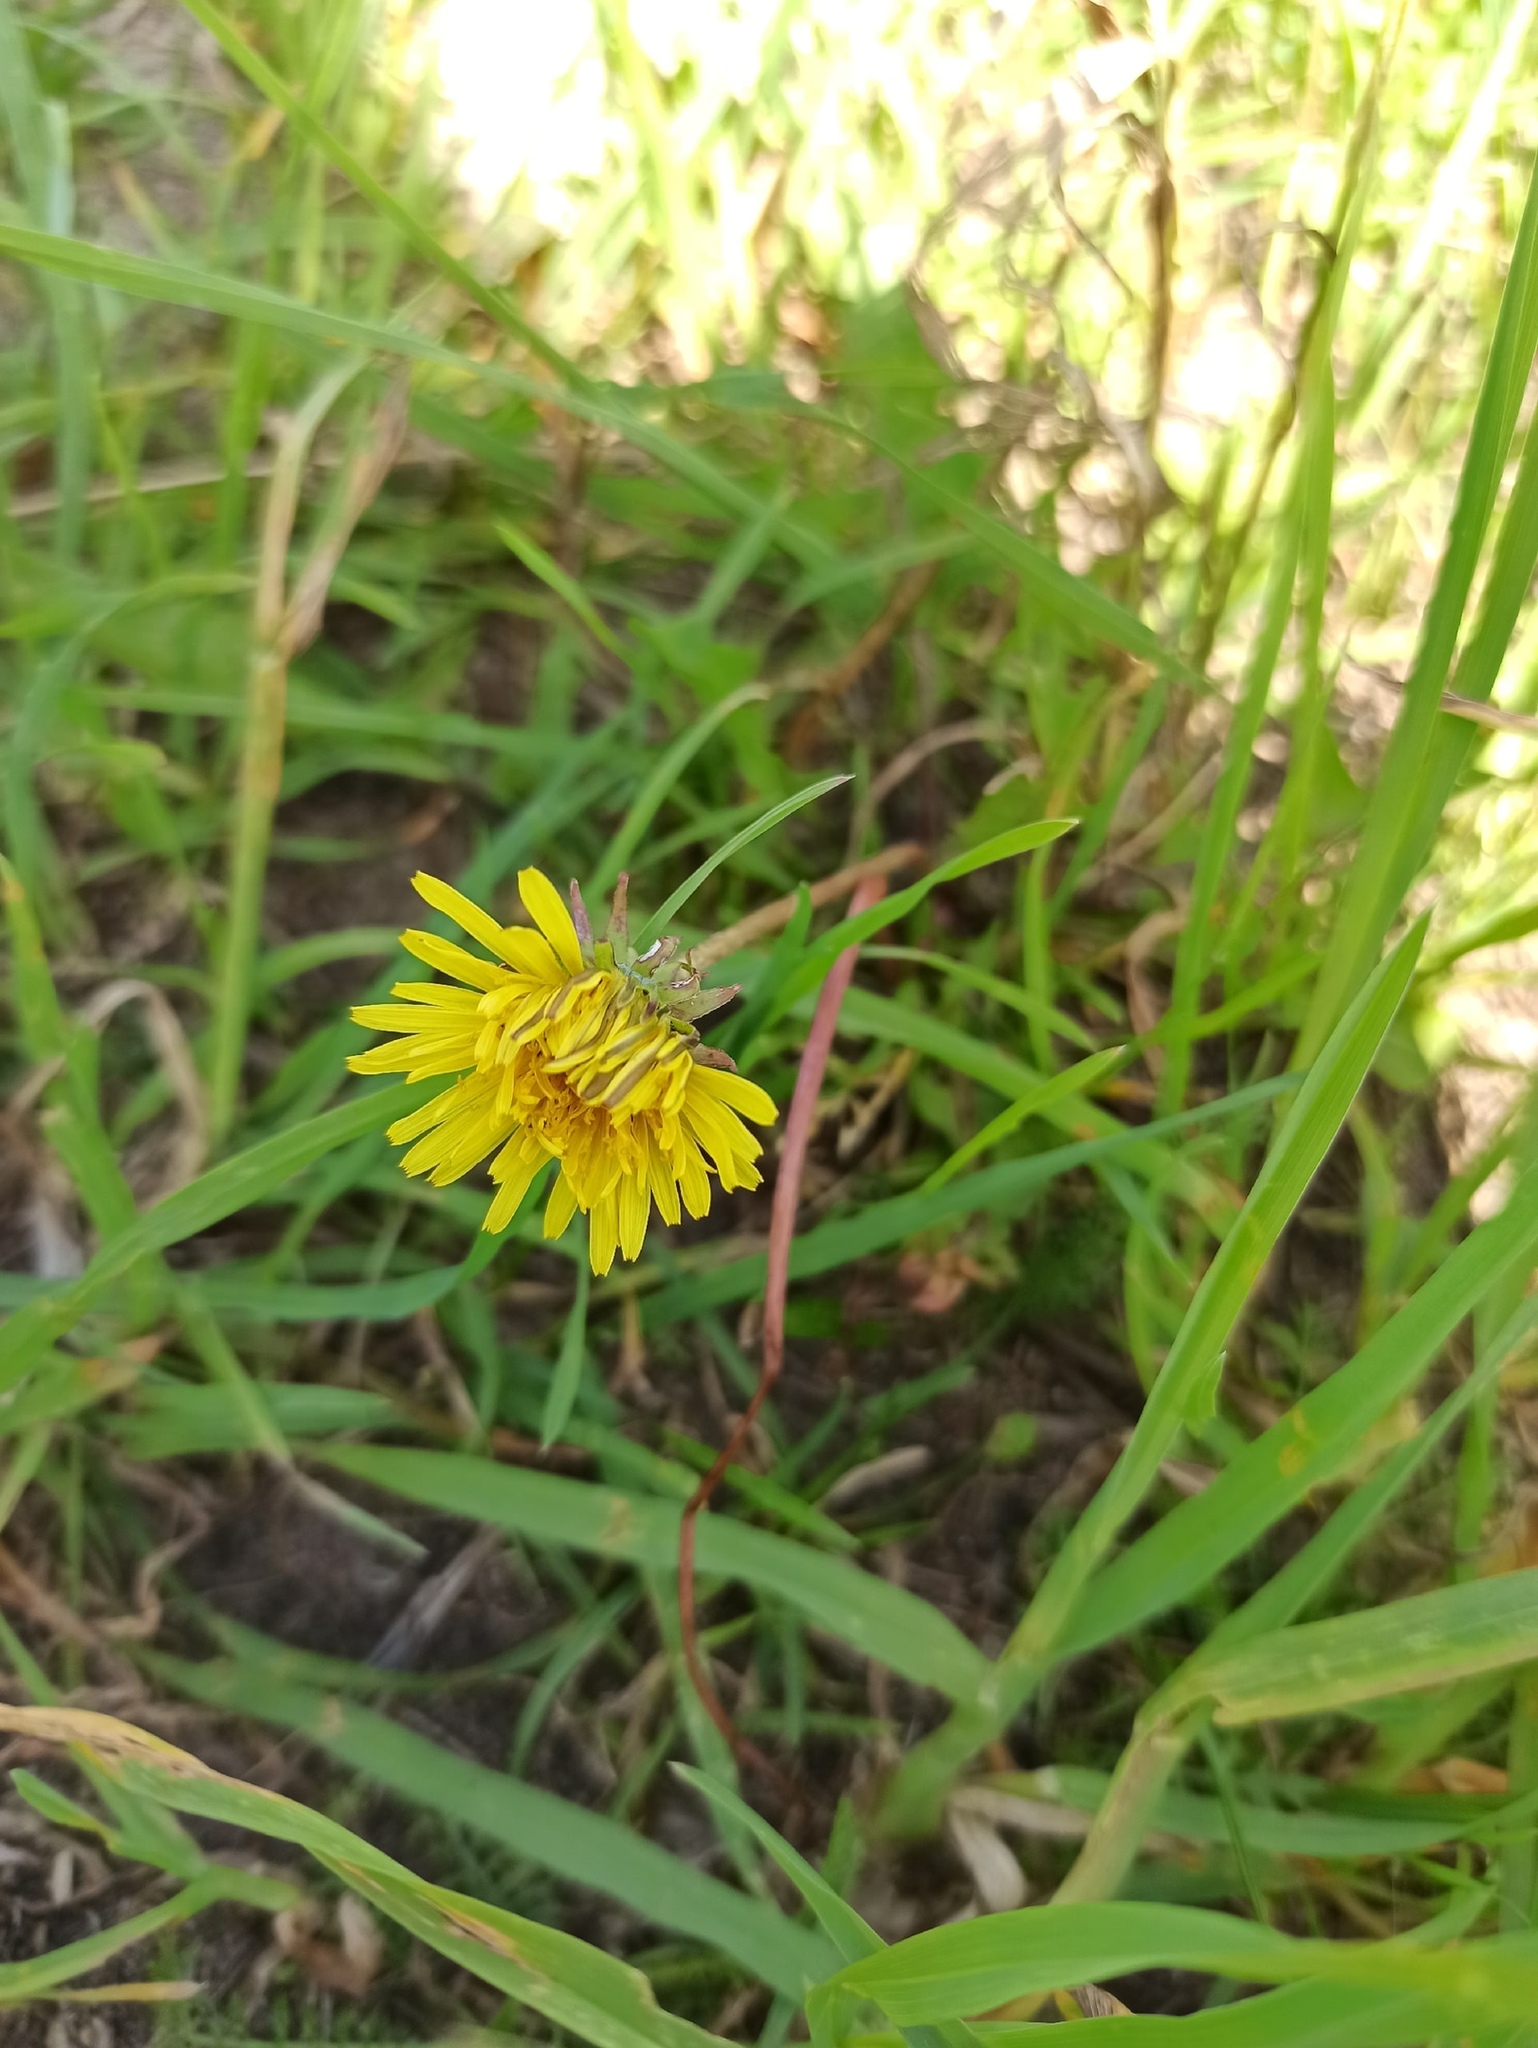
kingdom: Plantae
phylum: Tracheophyta
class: Magnoliopsida
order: Asterales
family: Asteraceae
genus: Taraxacum
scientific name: Taraxacum officinale
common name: Common dandelion
